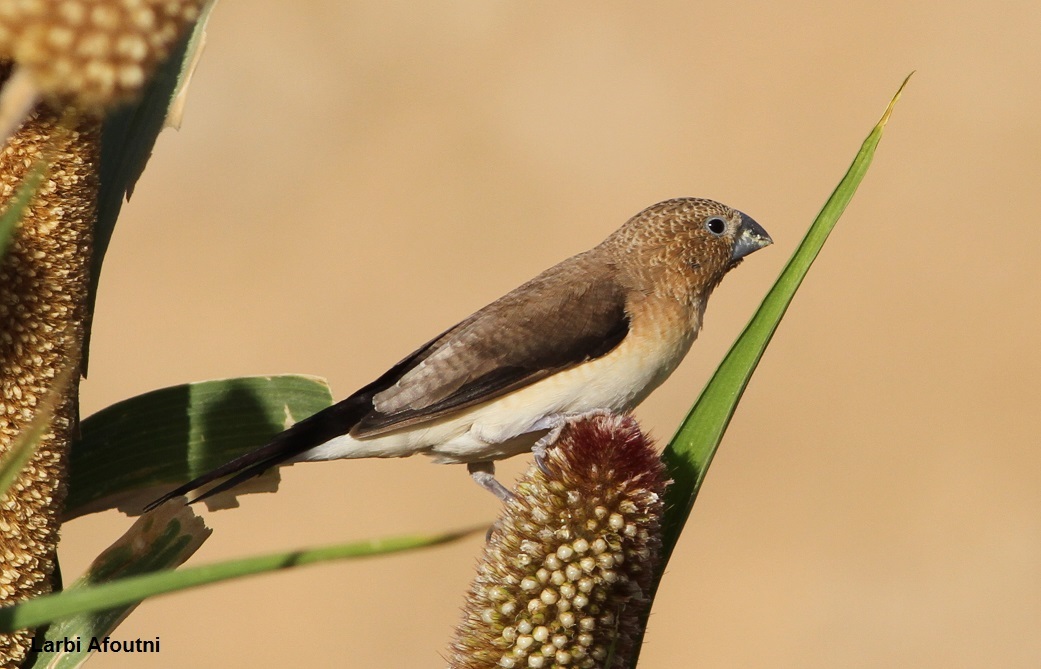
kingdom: Animalia
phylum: Chordata
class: Aves
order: Passeriformes
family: Estrildidae
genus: Euodice
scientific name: Euodice cantans
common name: African silverbill
